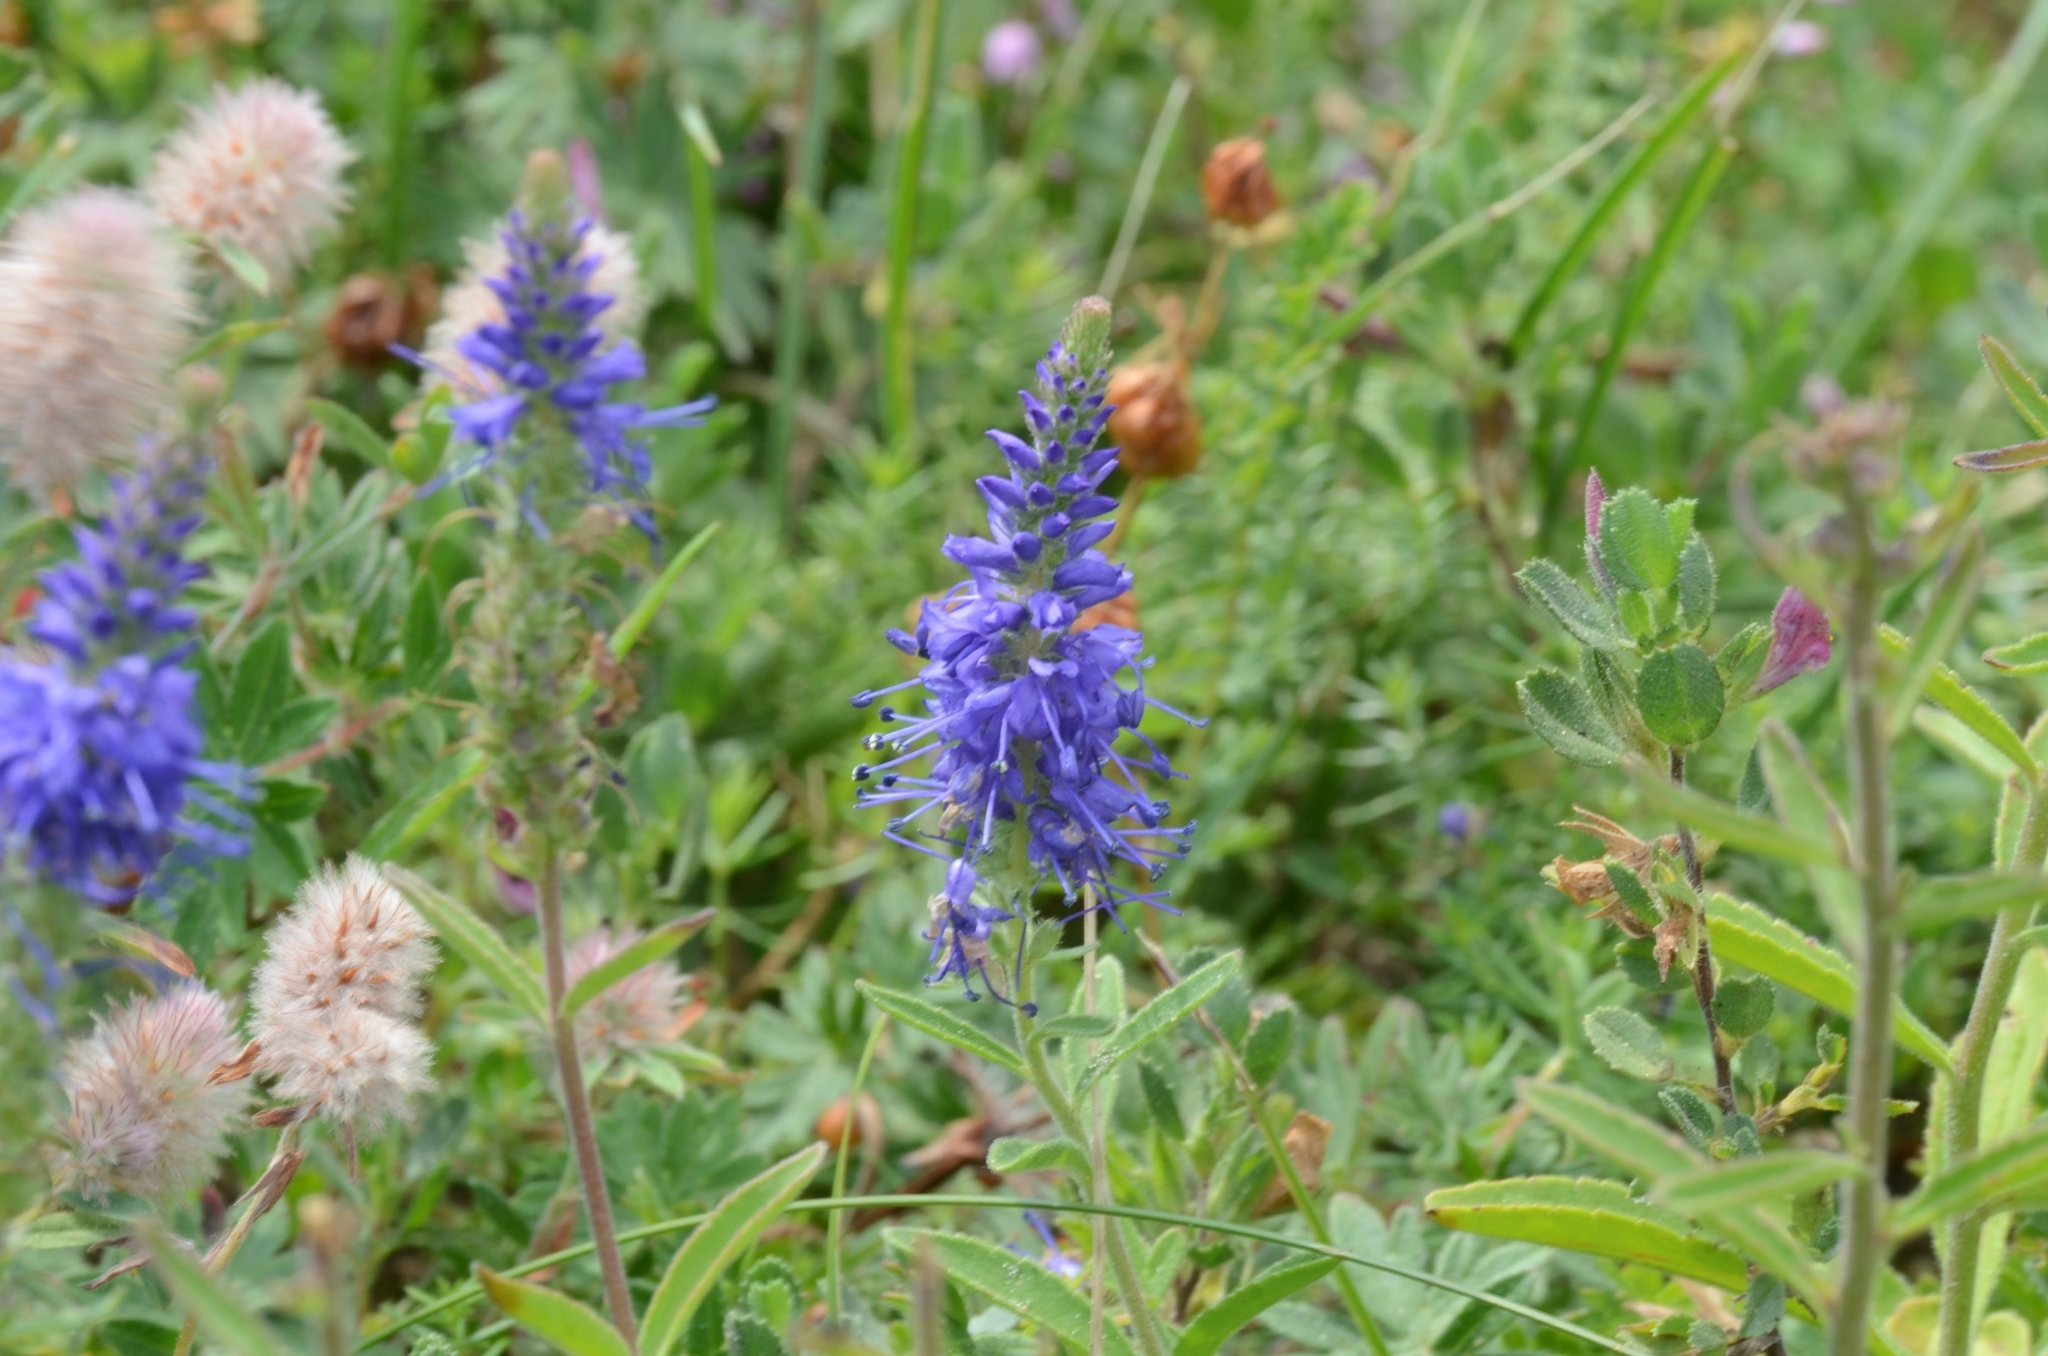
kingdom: Plantae
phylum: Tracheophyta
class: Magnoliopsida
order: Lamiales
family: Plantaginaceae
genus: Veronica
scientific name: Veronica spicata
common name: Spiked speedwell
